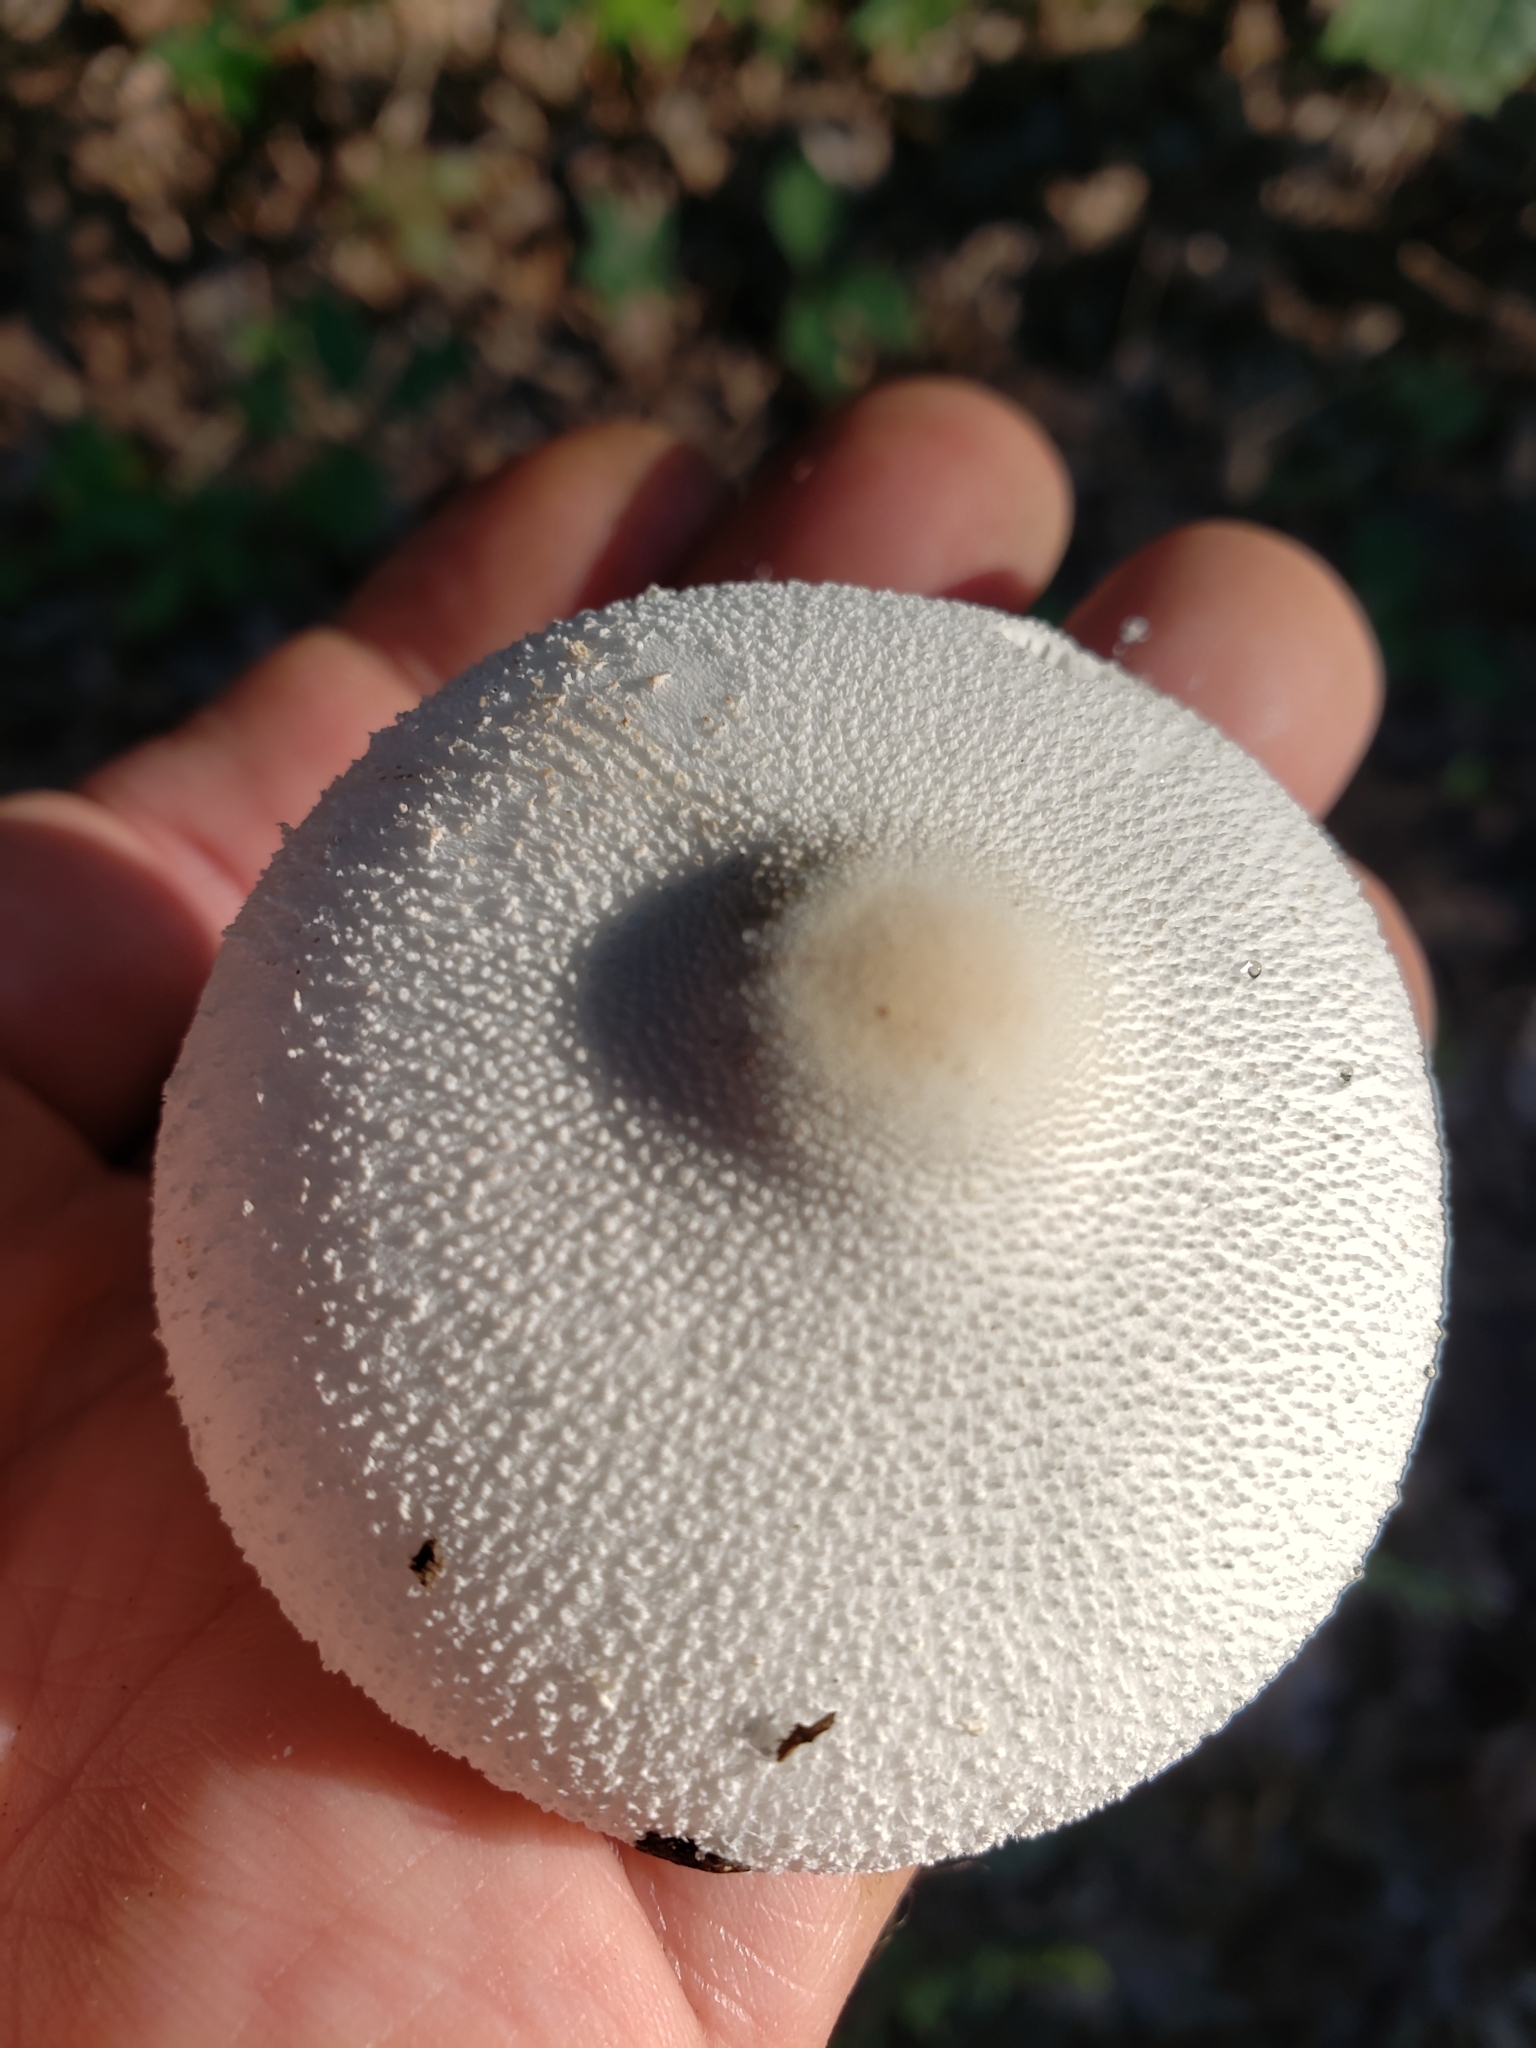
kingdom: Fungi
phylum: Basidiomycota
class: Agaricomycetes
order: Agaricales
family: Agaricaceae
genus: Leucocoprinus
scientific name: Leucocoprinus cepistipes
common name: Onion-stalk parasol
